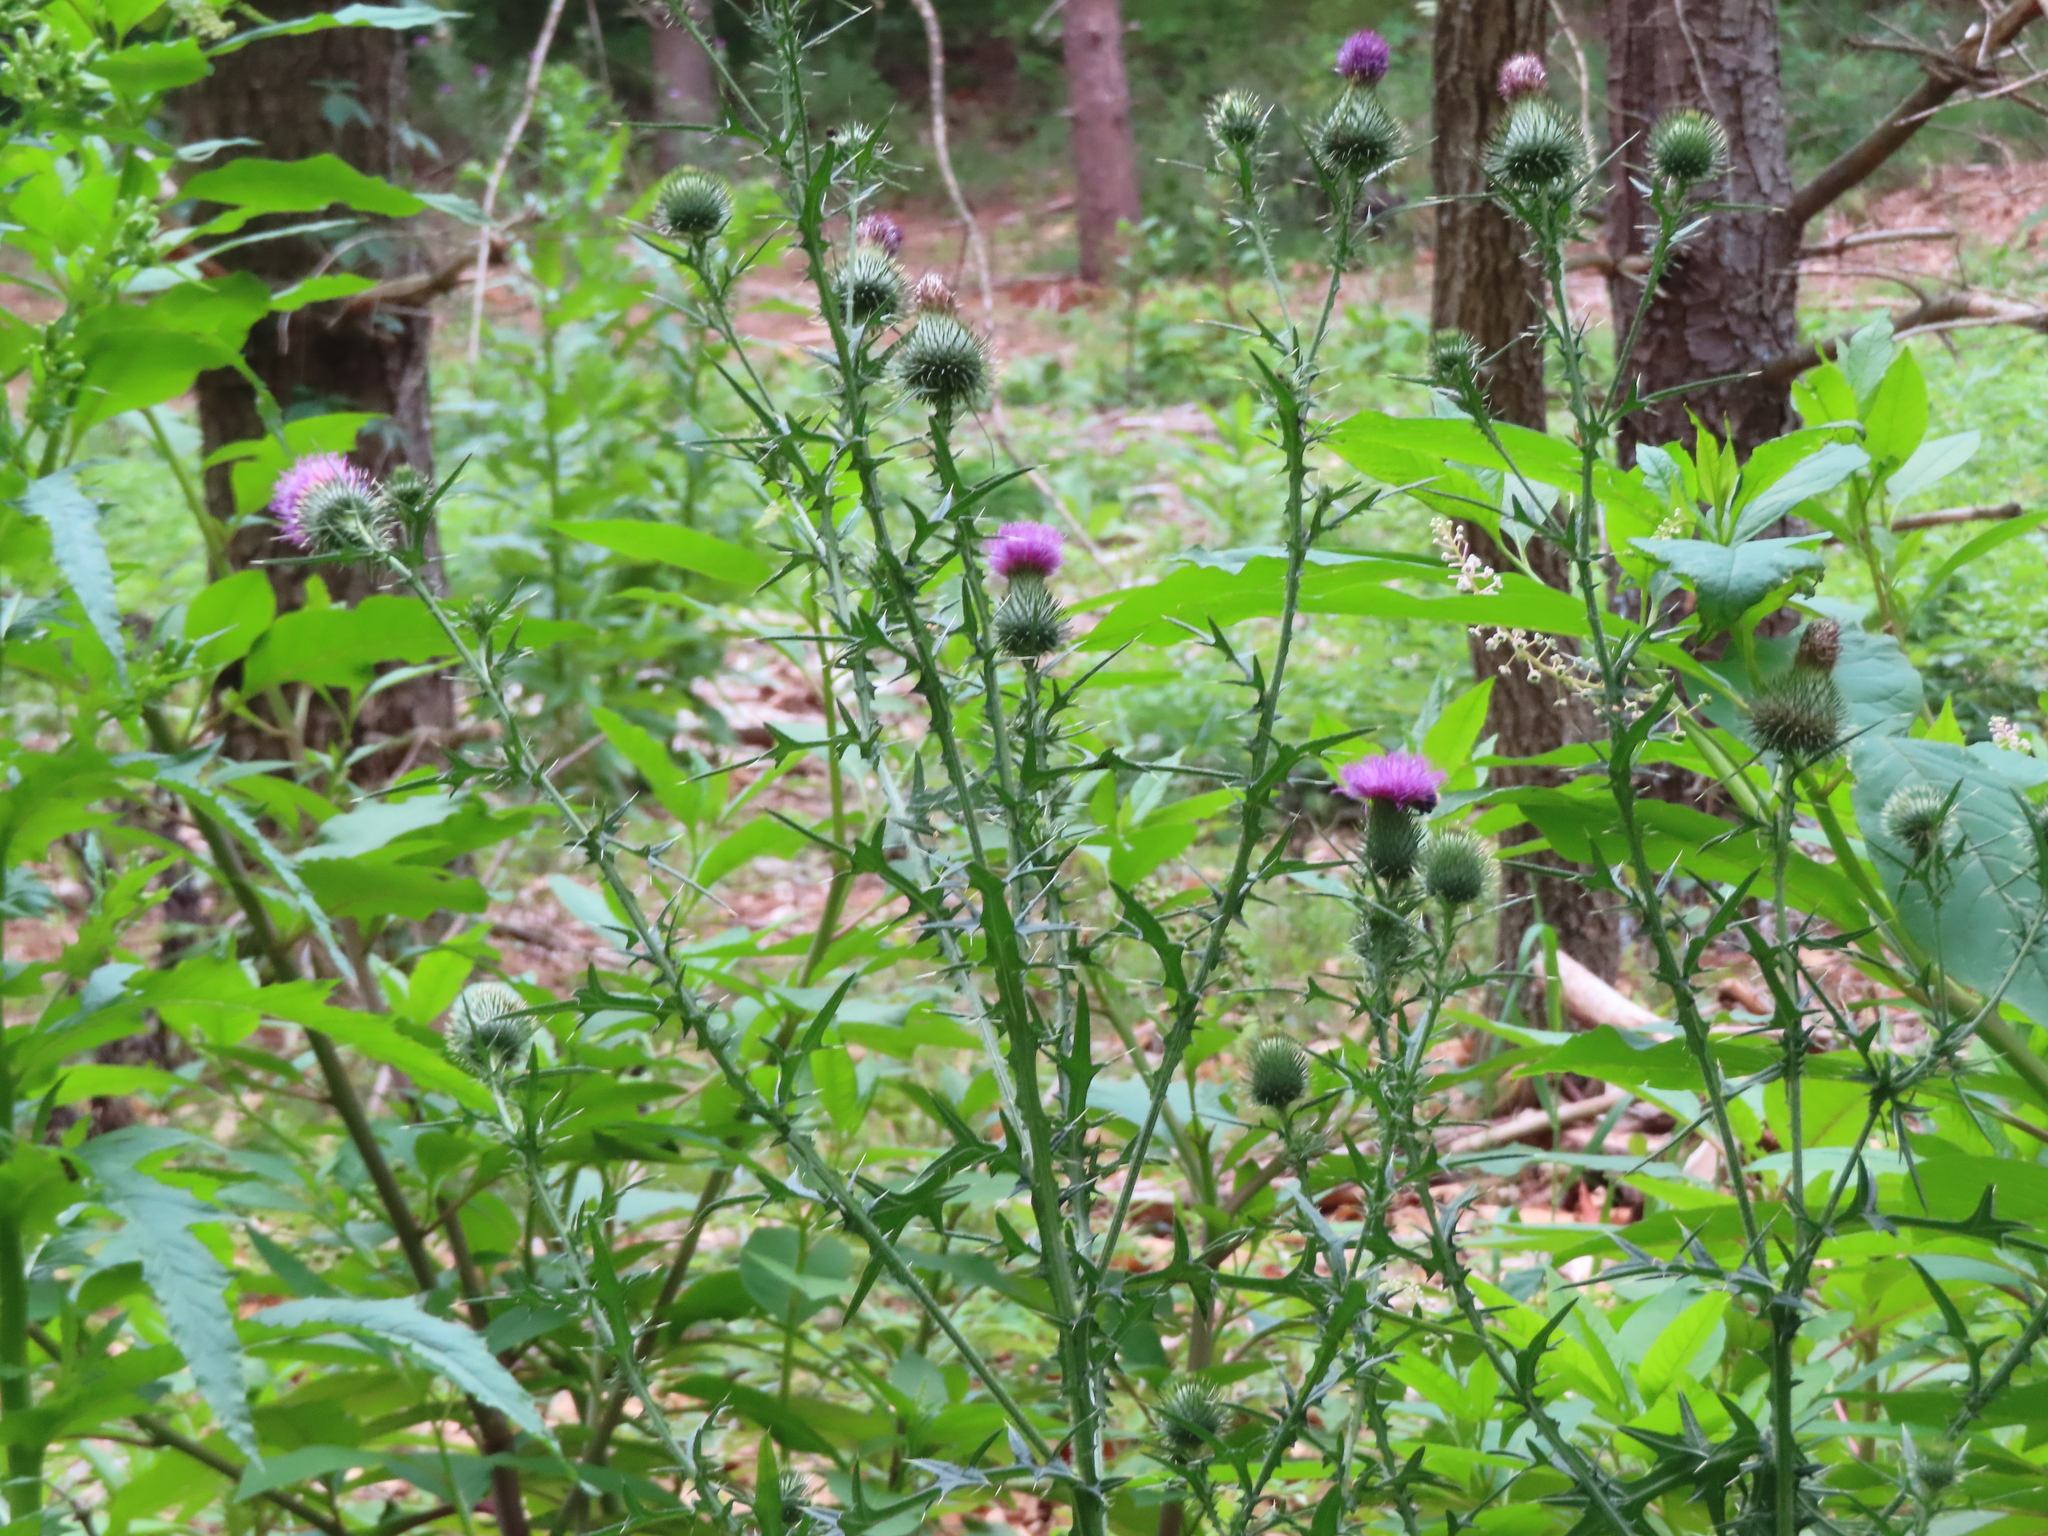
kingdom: Plantae
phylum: Tracheophyta
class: Magnoliopsida
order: Asterales
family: Asteraceae
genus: Cirsium
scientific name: Cirsium vulgare
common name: Bull thistle
